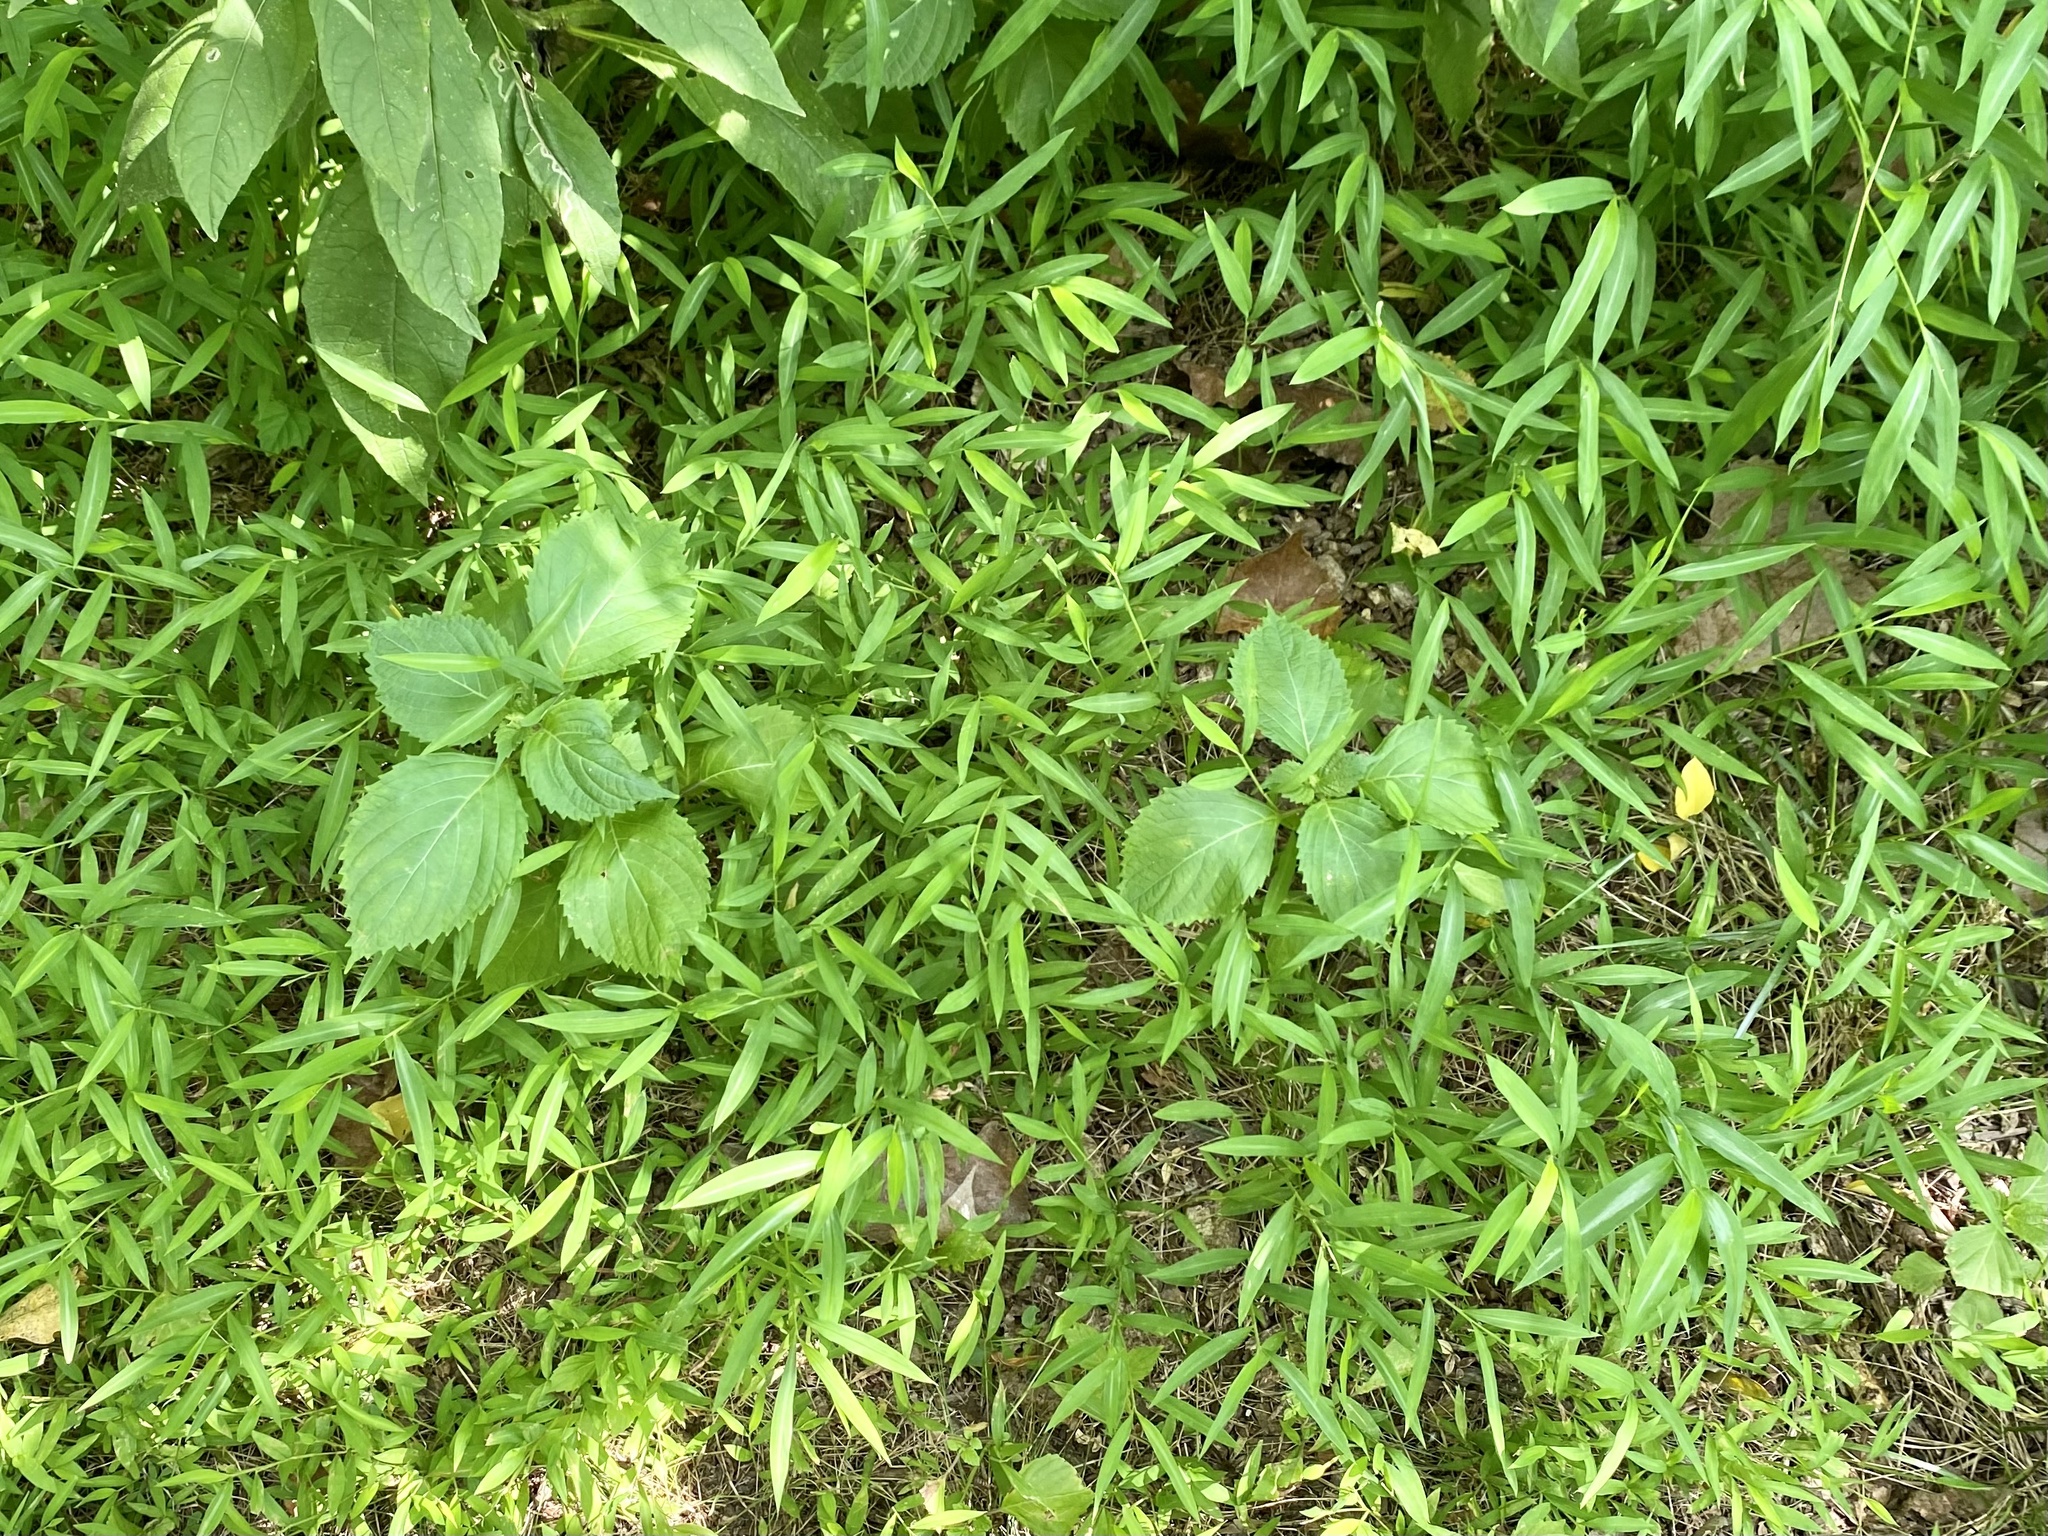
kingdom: Plantae
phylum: Tracheophyta
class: Magnoliopsida
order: Lamiales
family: Lamiaceae
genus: Perilla
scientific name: Perilla frutescens
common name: Perilla
